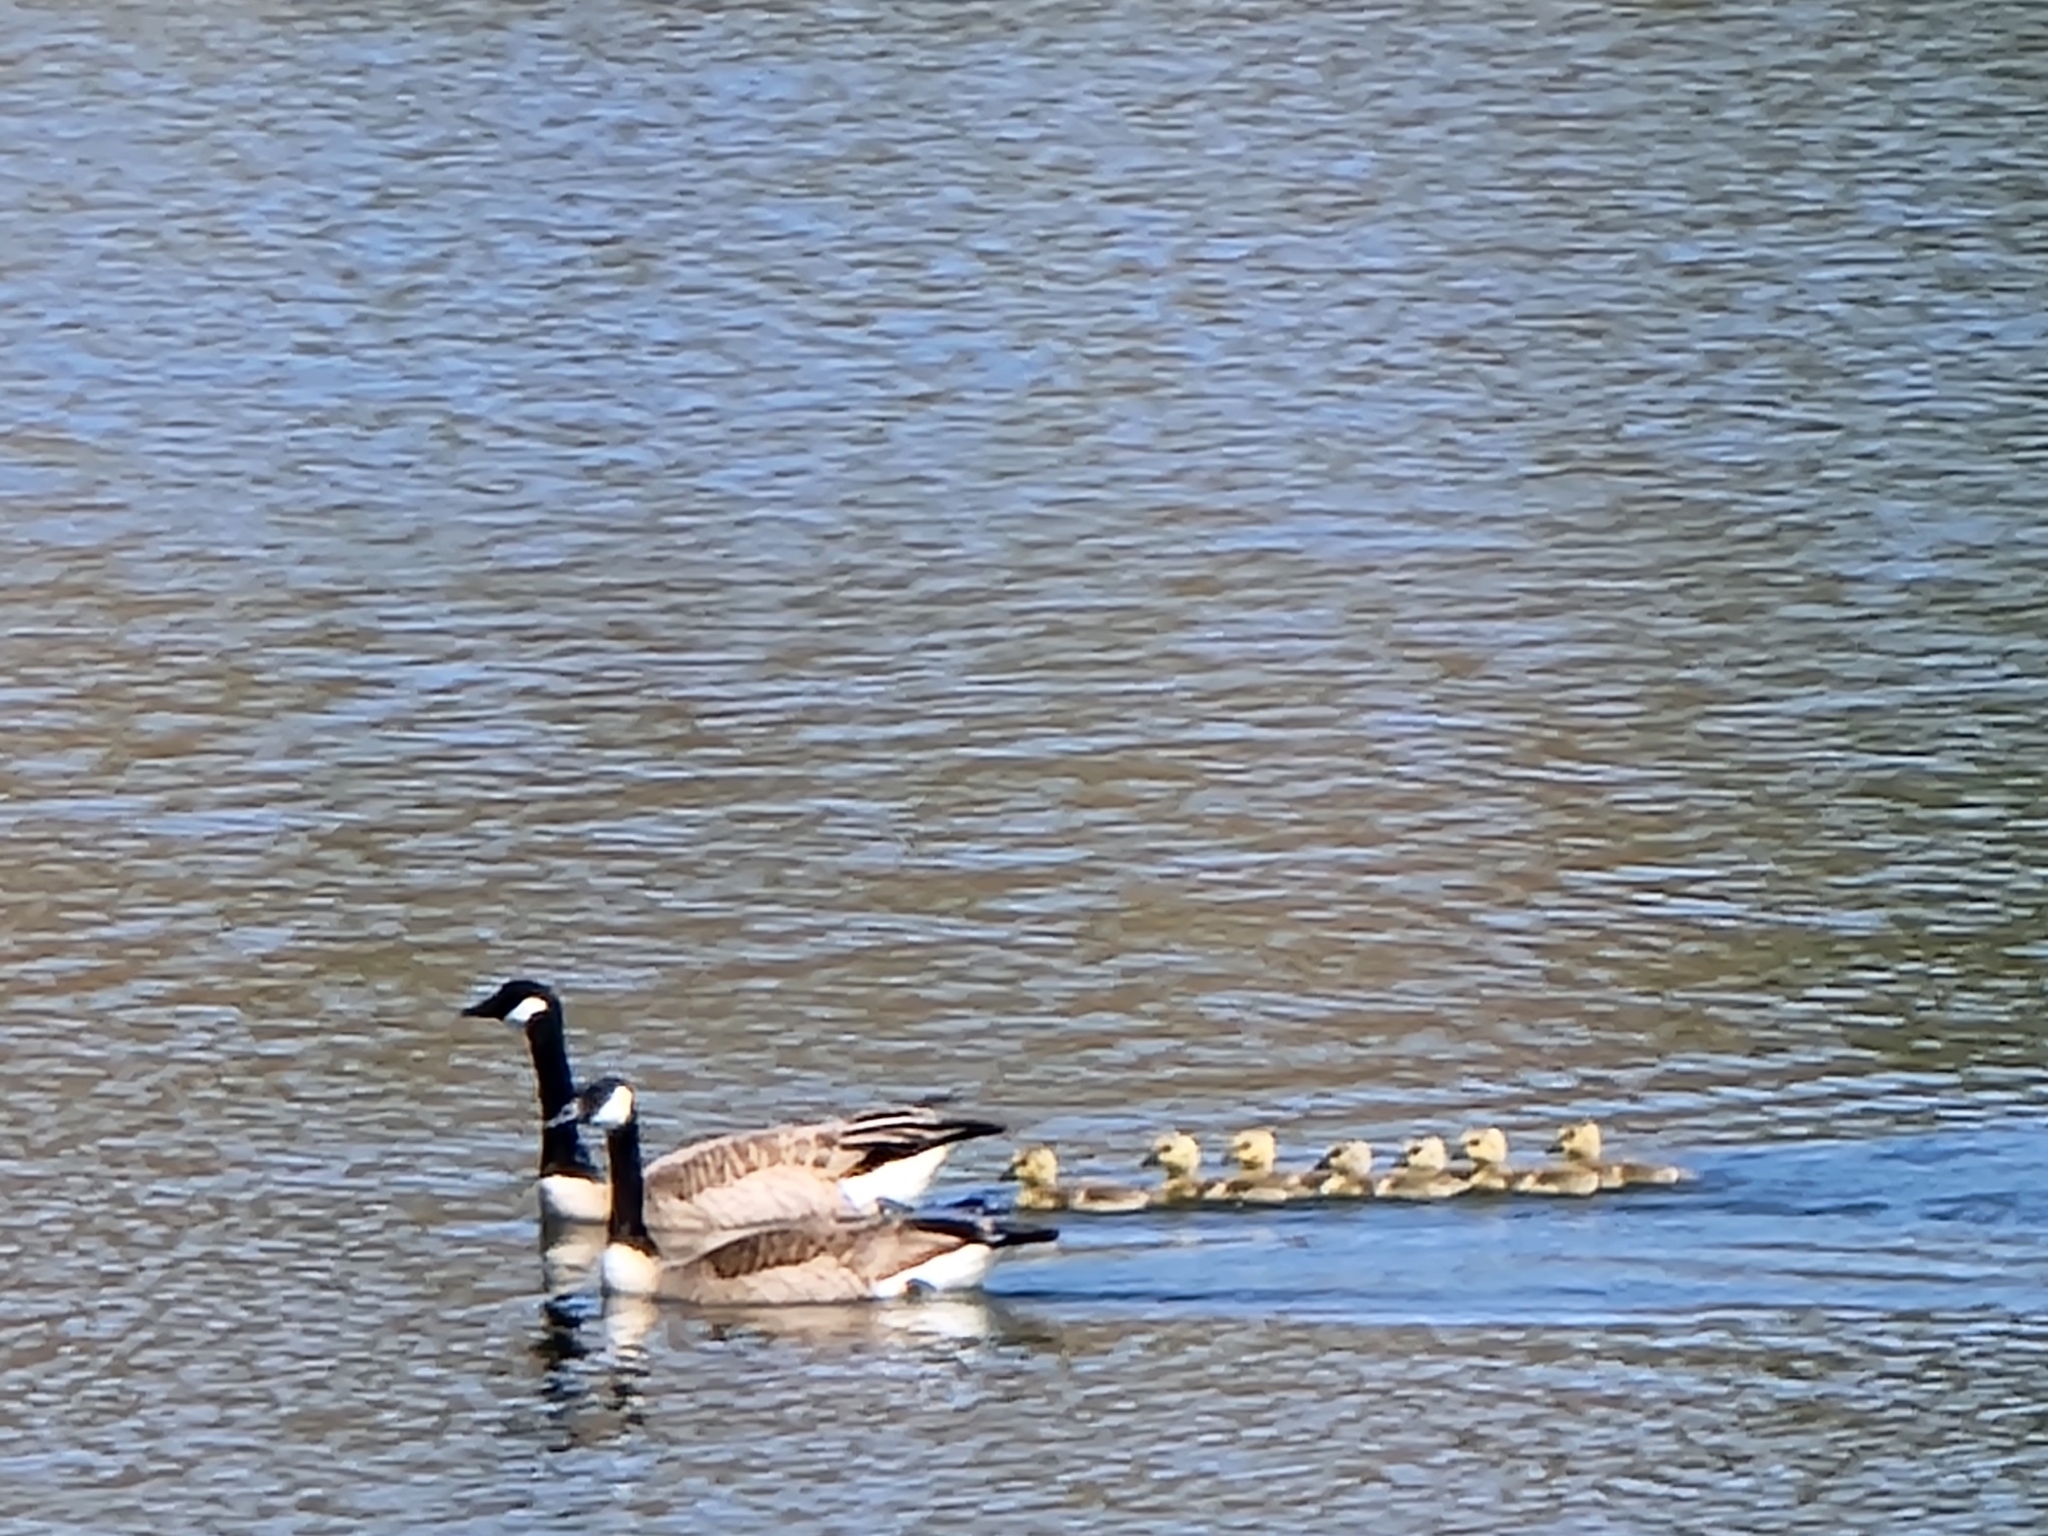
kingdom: Animalia
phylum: Chordata
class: Aves
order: Anseriformes
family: Anatidae
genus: Branta
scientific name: Branta canadensis
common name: Canada goose
